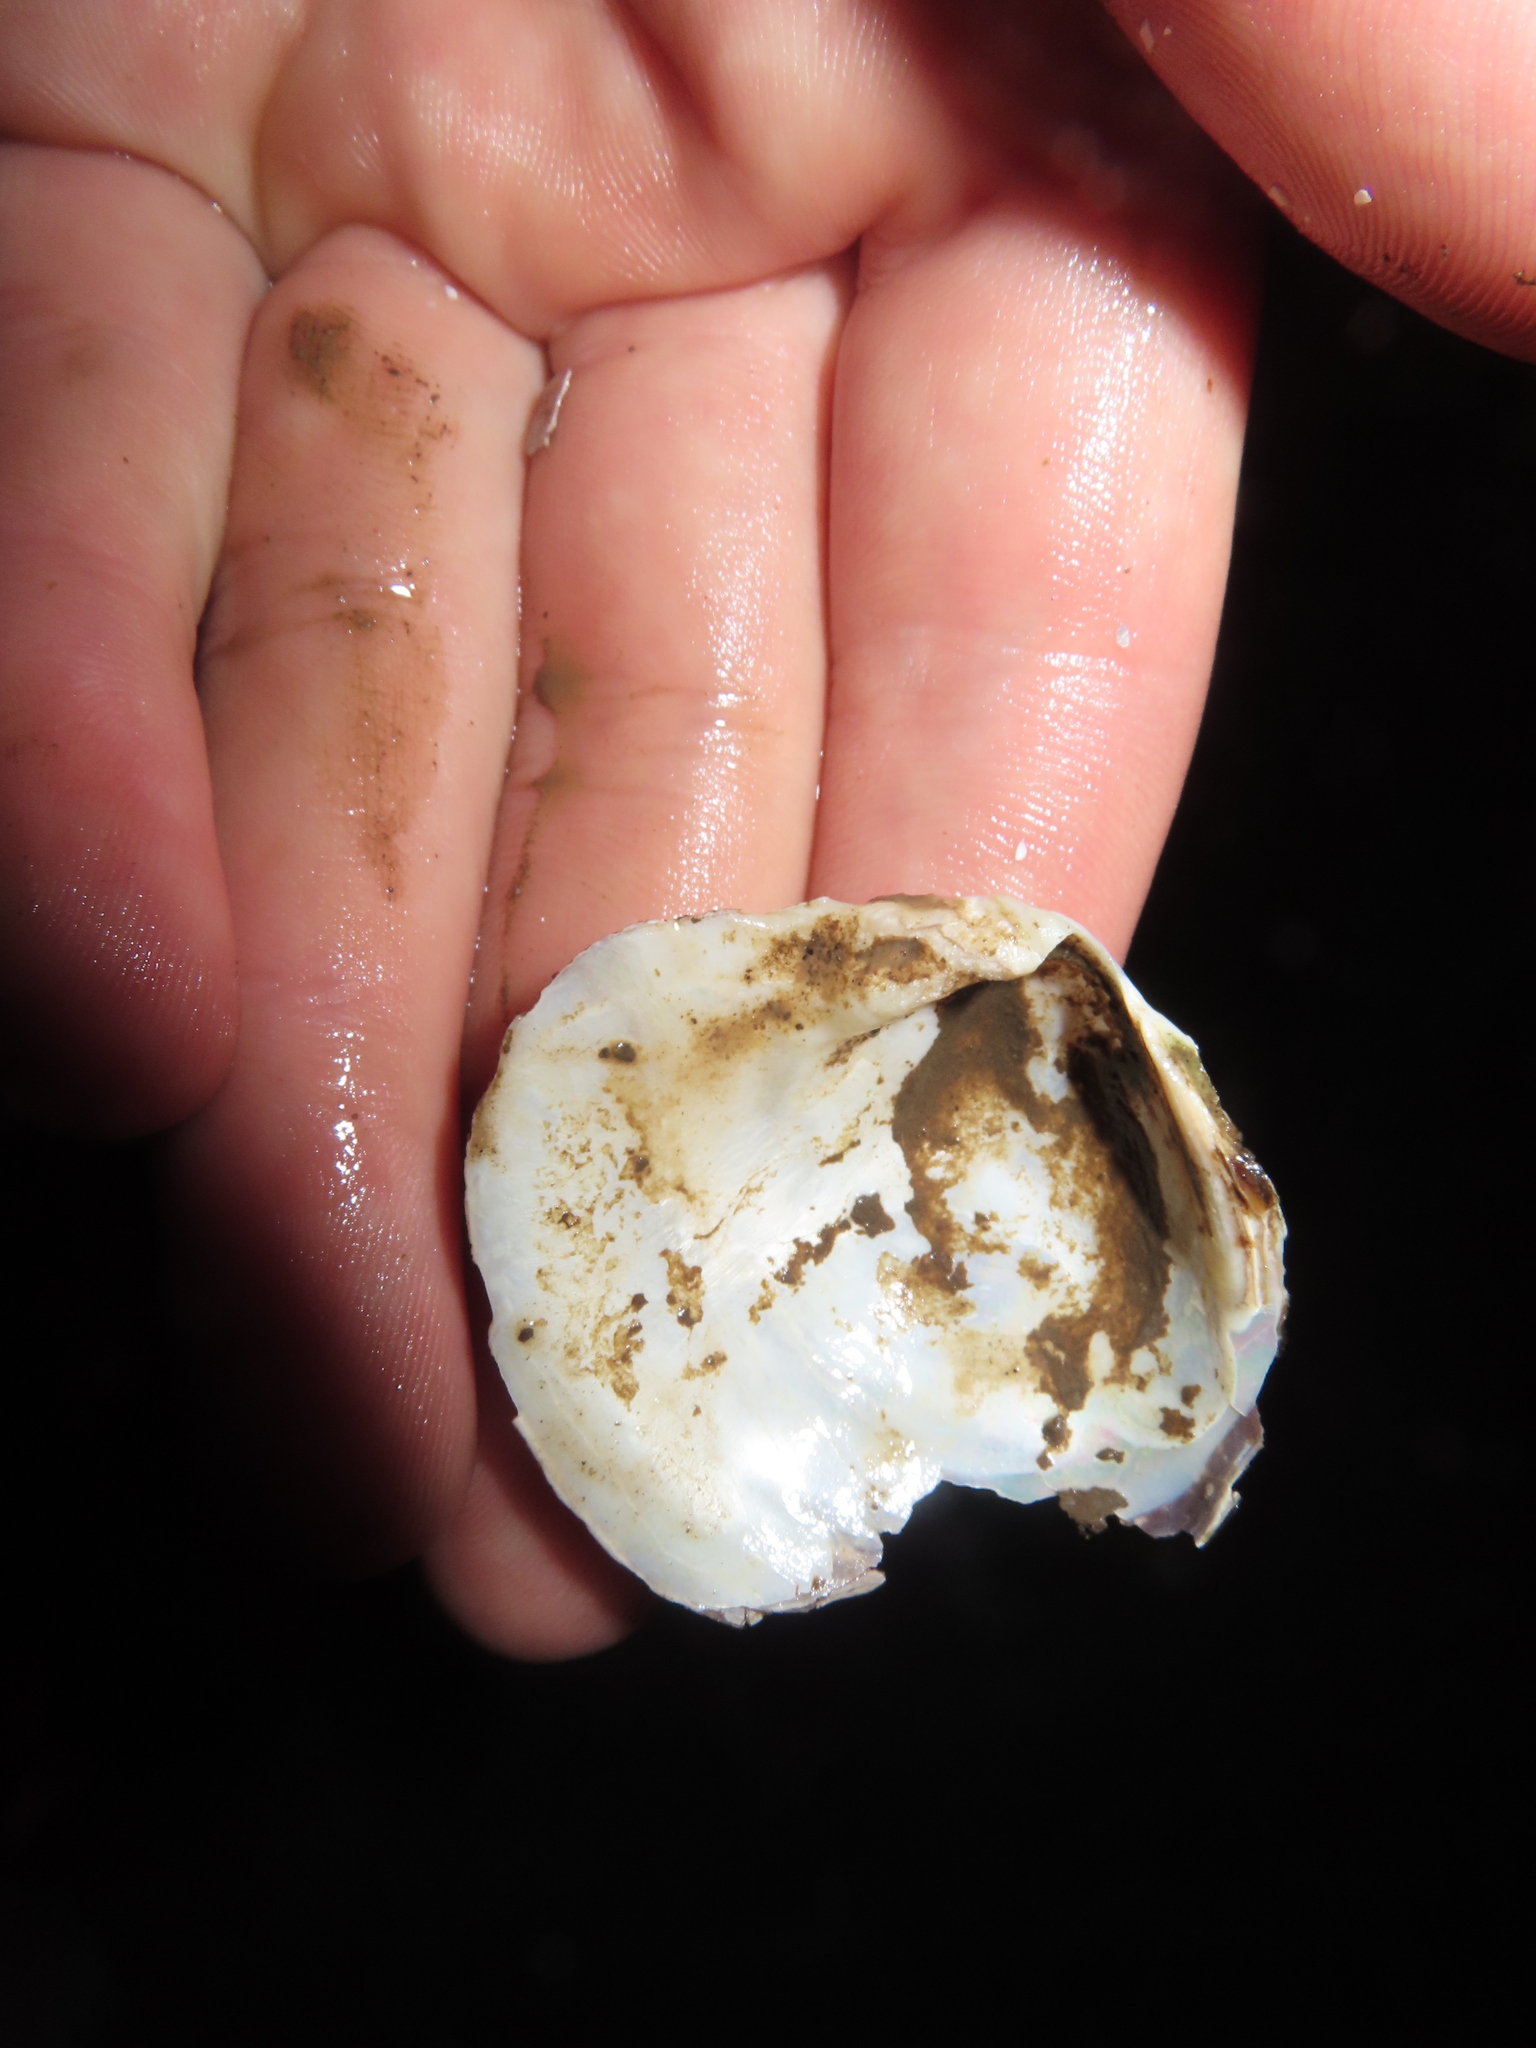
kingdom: Animalia
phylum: Mollusca
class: Bivalvia
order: Unionida
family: Unionidae
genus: Quadrula
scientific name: Quadrula quadrula
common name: Mapleleaf
